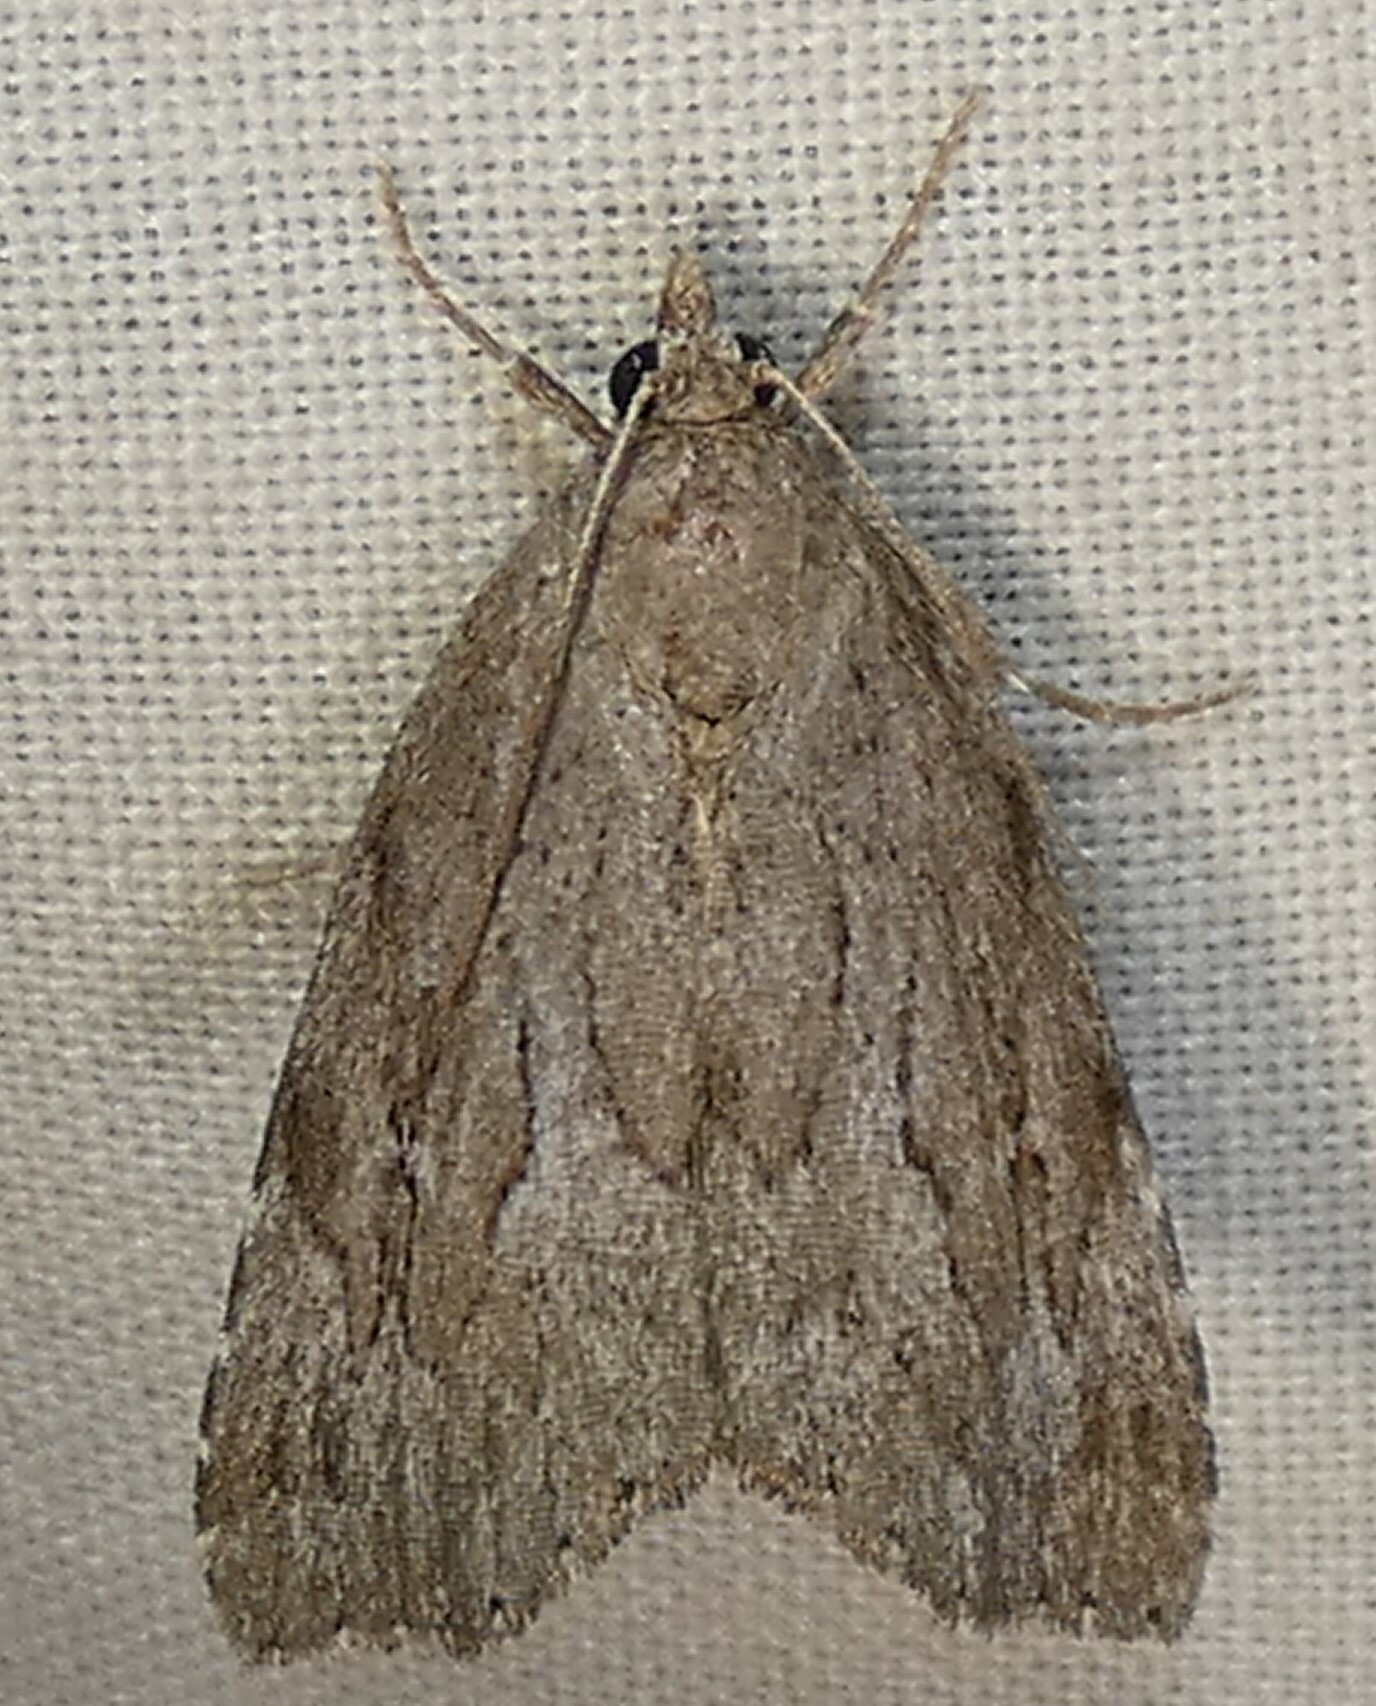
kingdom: Animalia
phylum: Arthropoda
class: Insecta
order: Lepidoptera
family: Erebidae
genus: Cutina
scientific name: Cutina albopunctella
